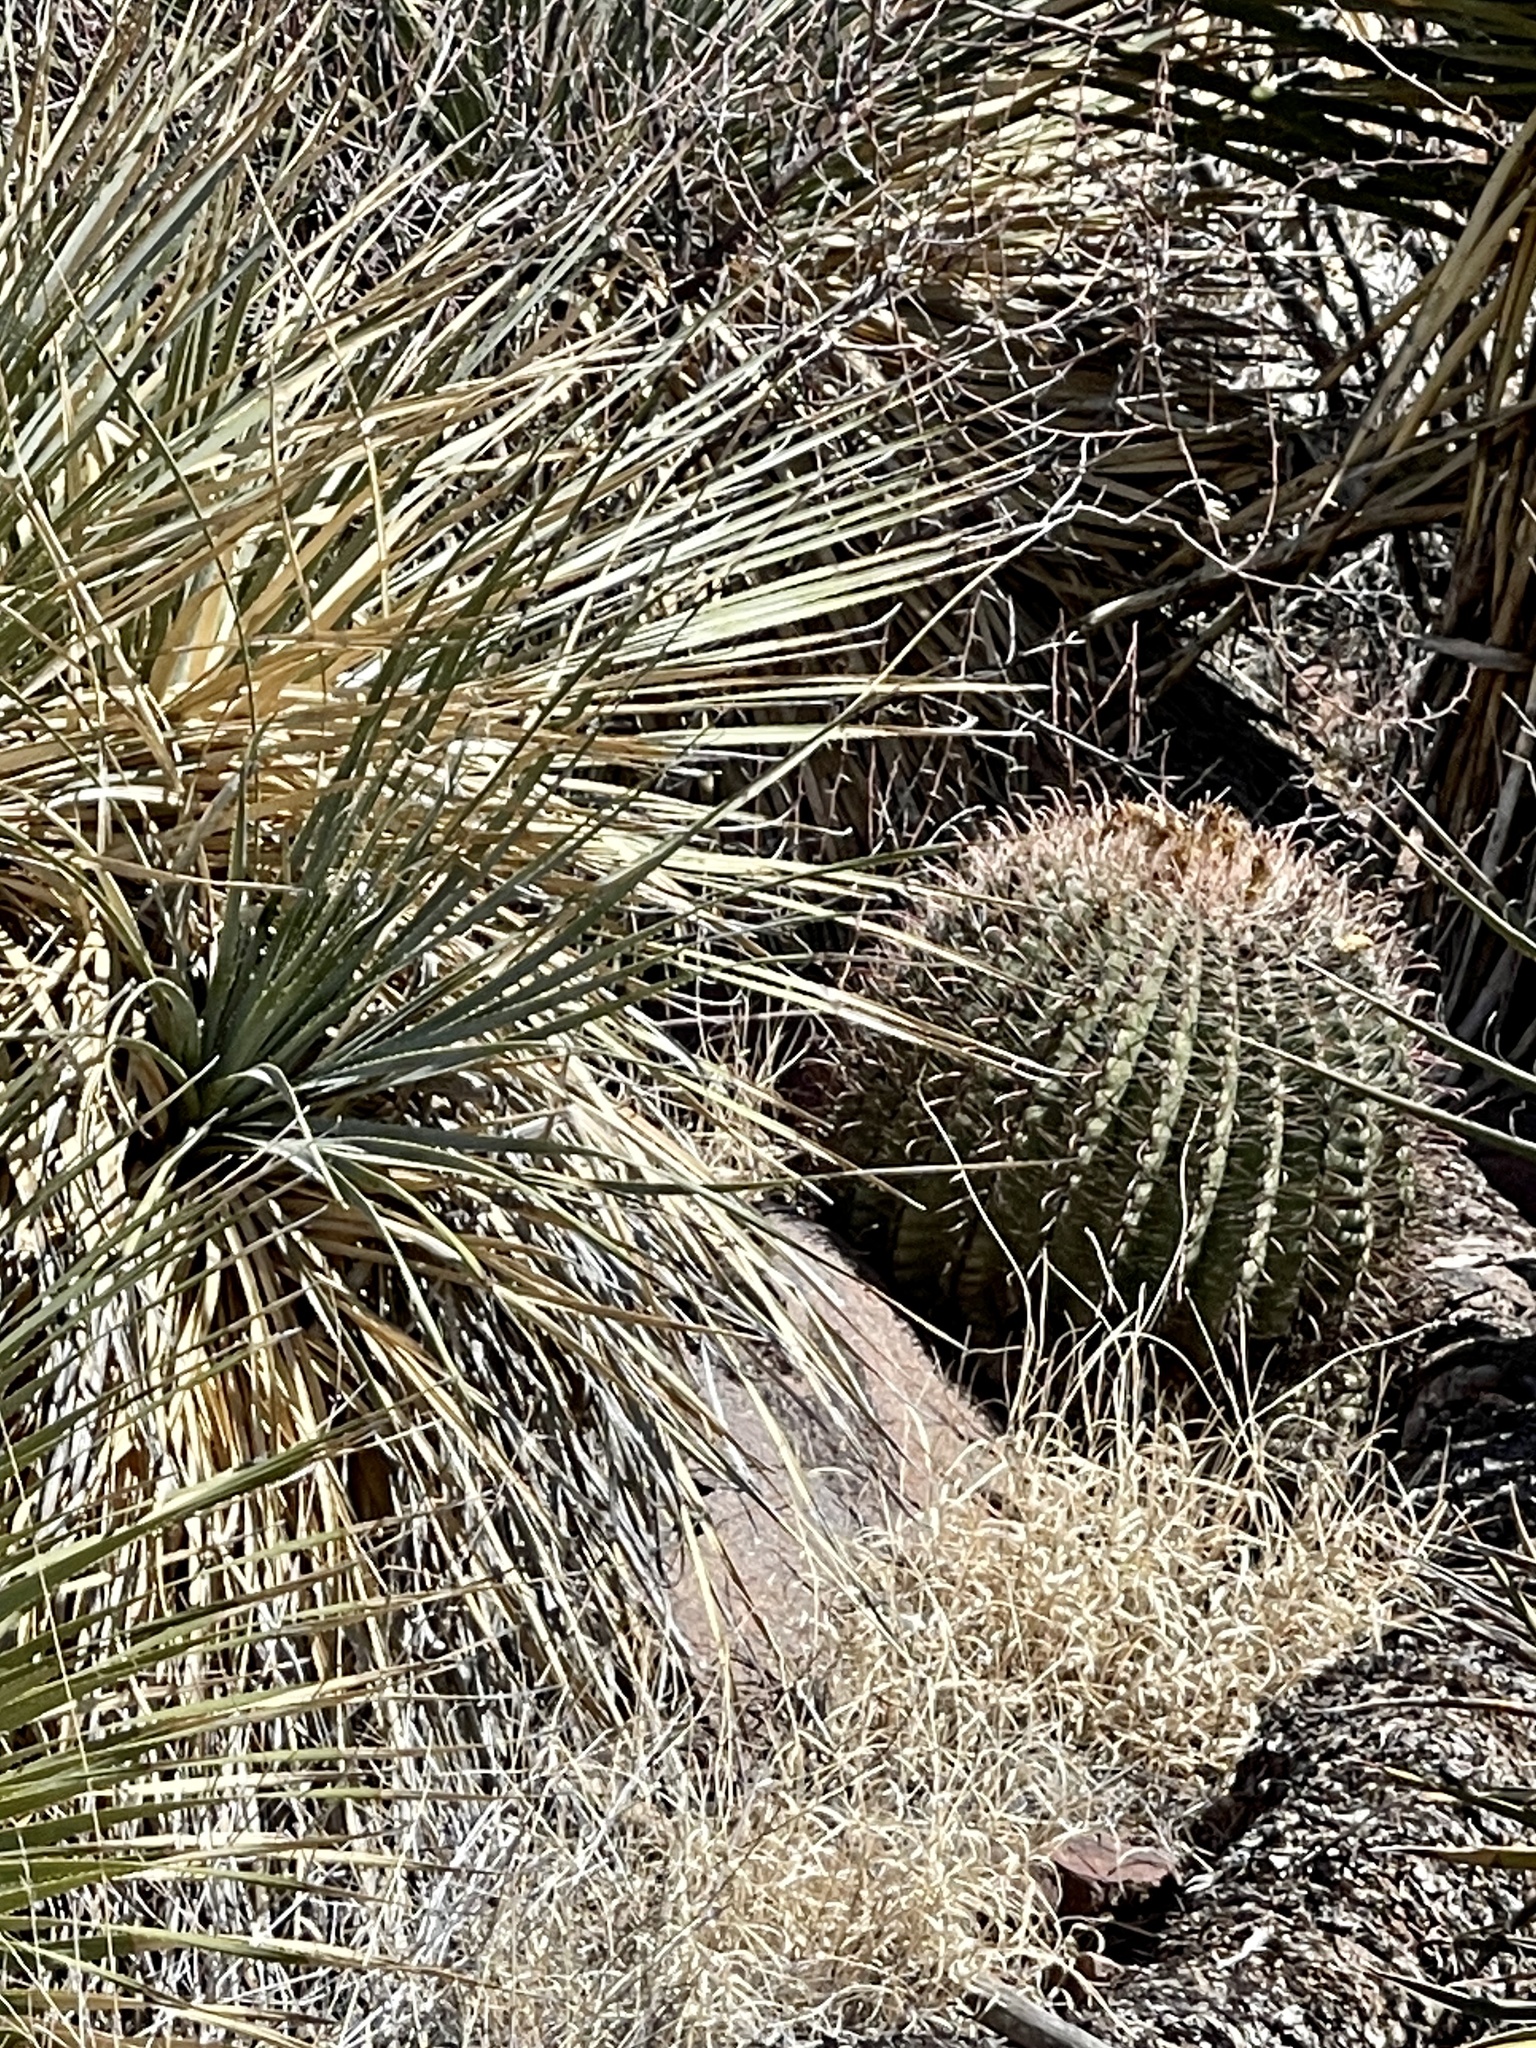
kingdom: Plantae
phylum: Tracheophyta
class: Magnoliopsida
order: Caryophyllales
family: Cactaceae
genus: Ferocactus
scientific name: Ferocactus wislizeni
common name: Candy barrel cactus
